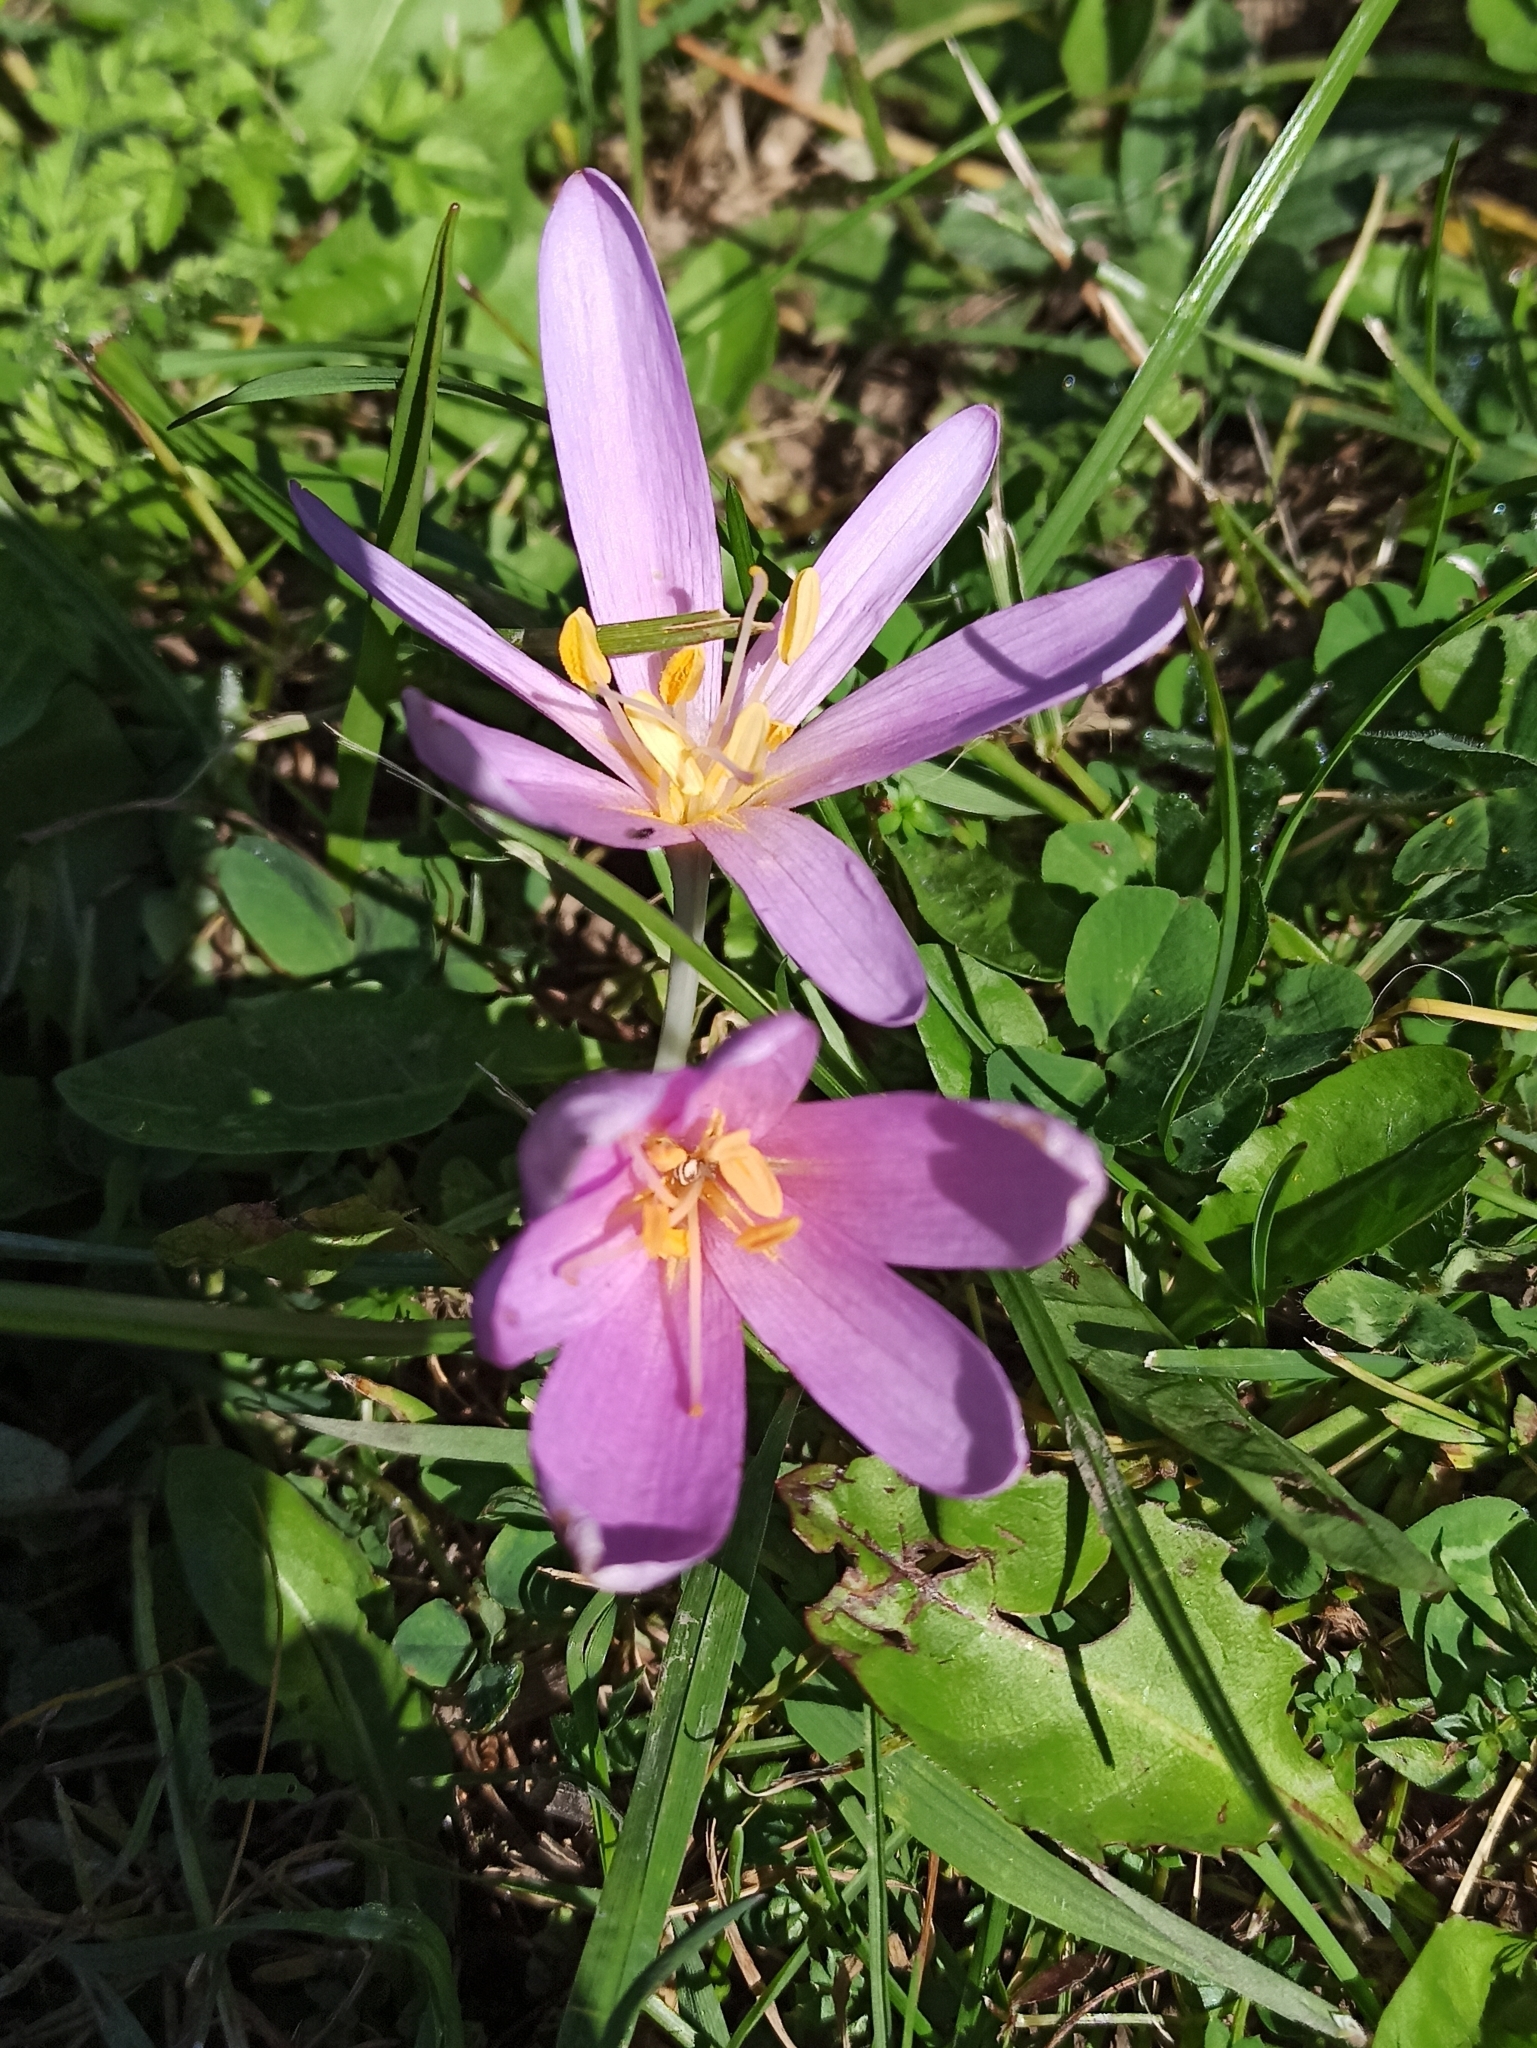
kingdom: Plantae
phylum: Tracheophyta
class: Liliopsida
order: Liliales
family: Colchicaceae
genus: Colchicum
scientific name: Colchicum autumnale
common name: Autumn crocus
